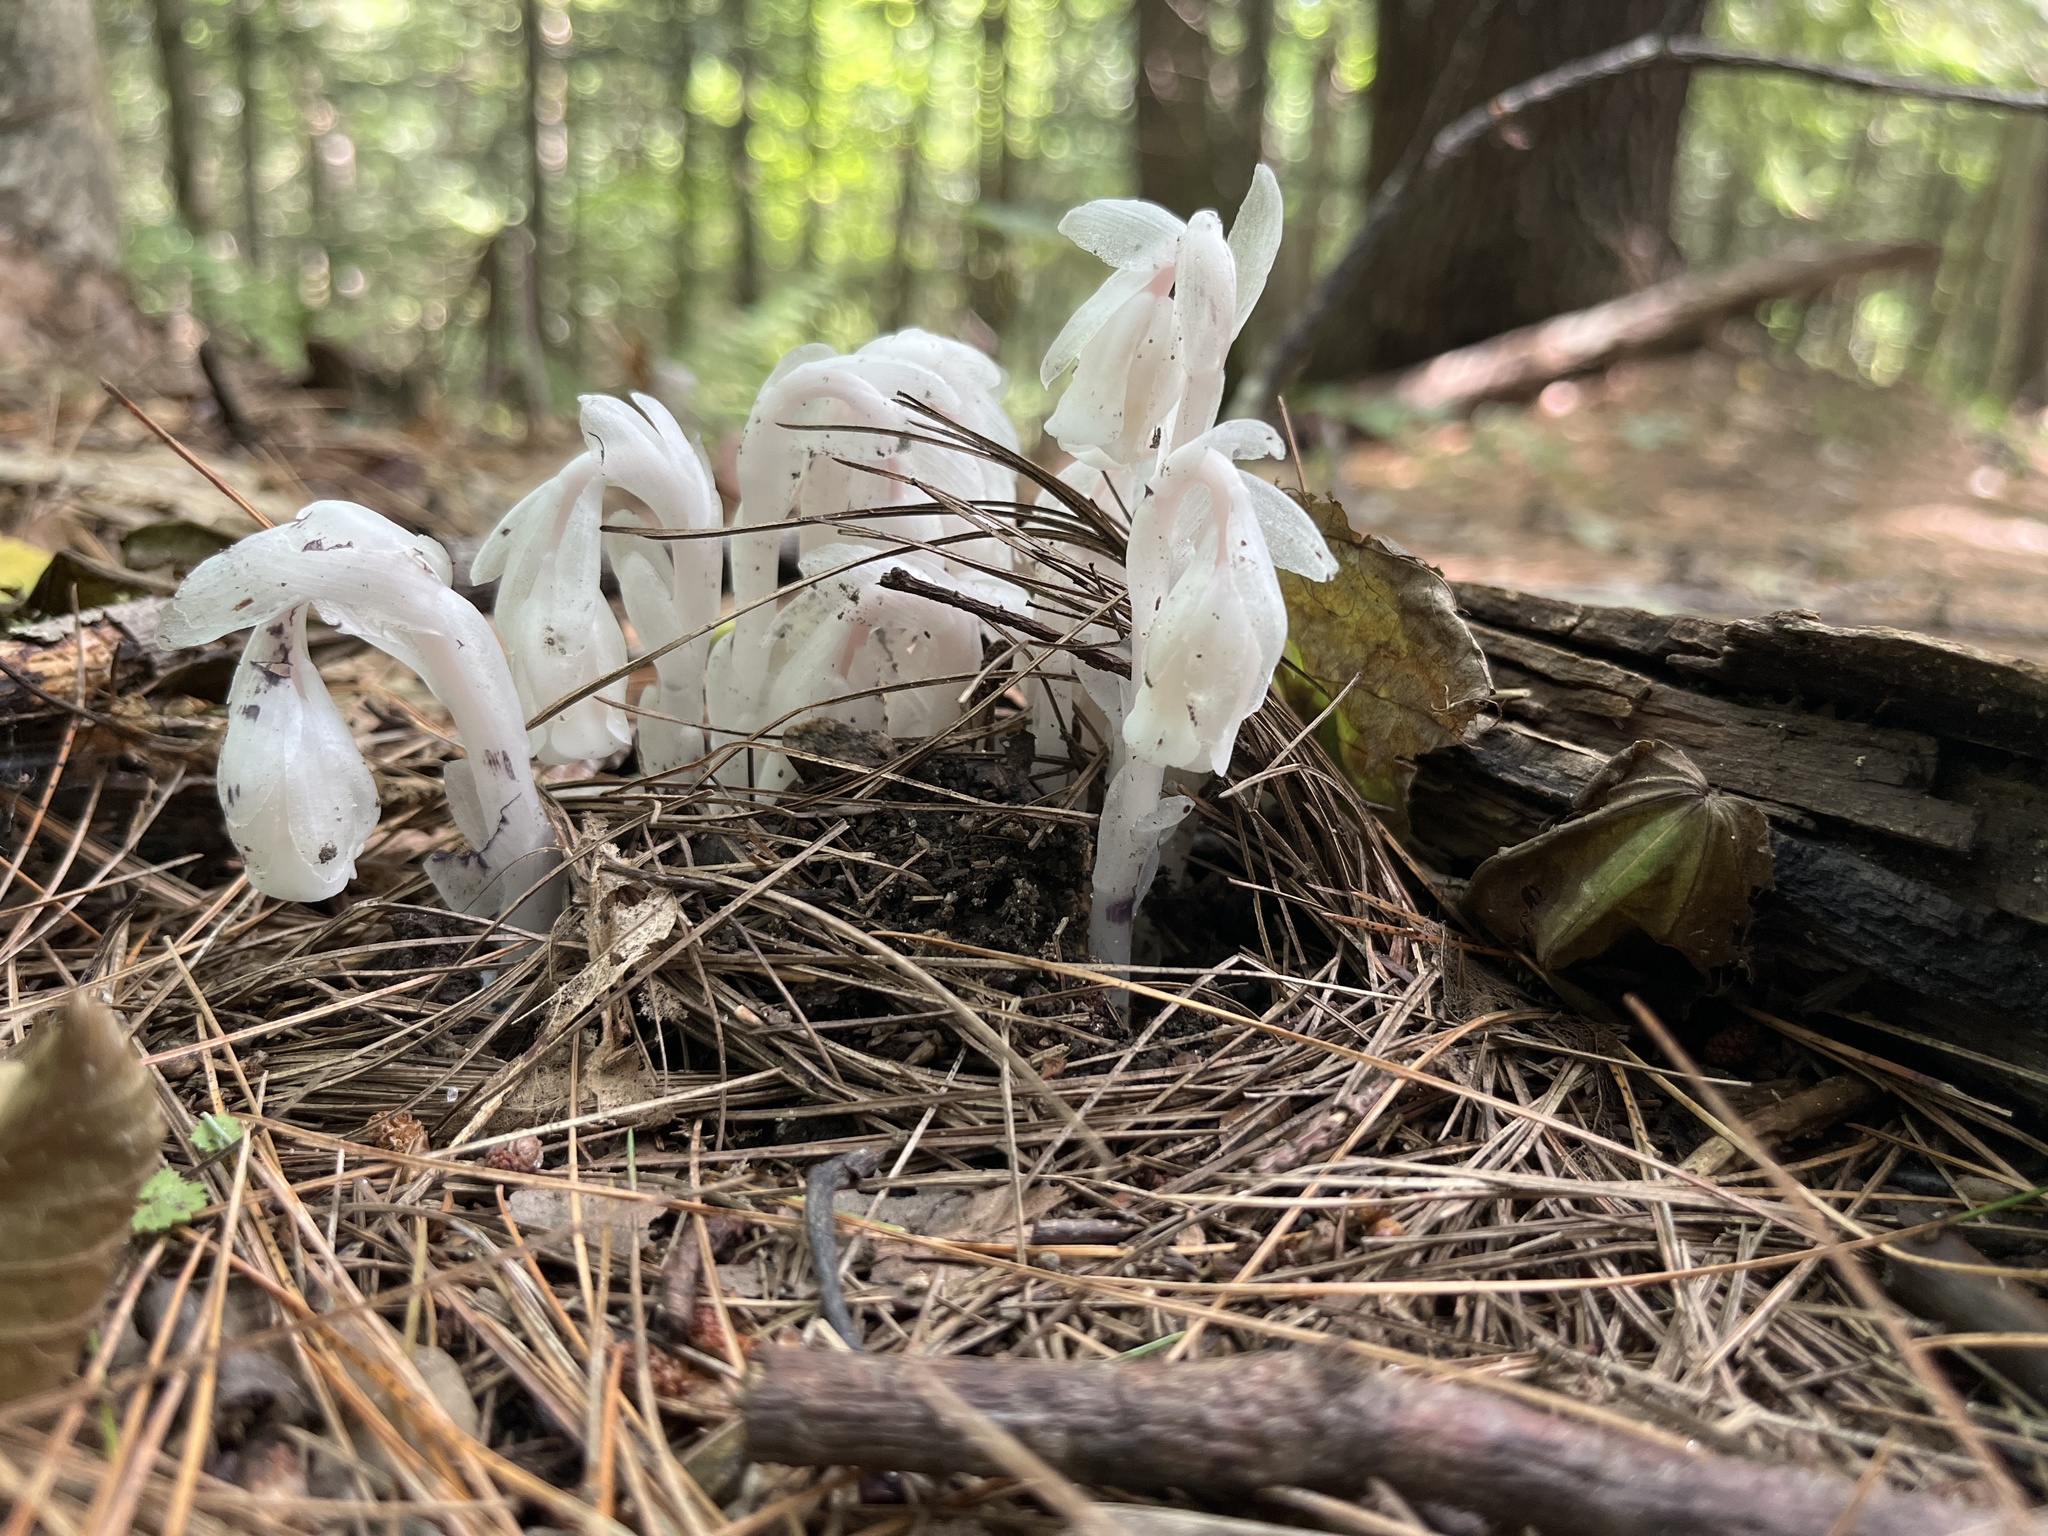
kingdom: Plantae
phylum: Tracheophyta
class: Magnoliopsida
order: Ericales
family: Ericaceae
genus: Monotropa
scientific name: Monotropa uniflora
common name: Convulsion root
